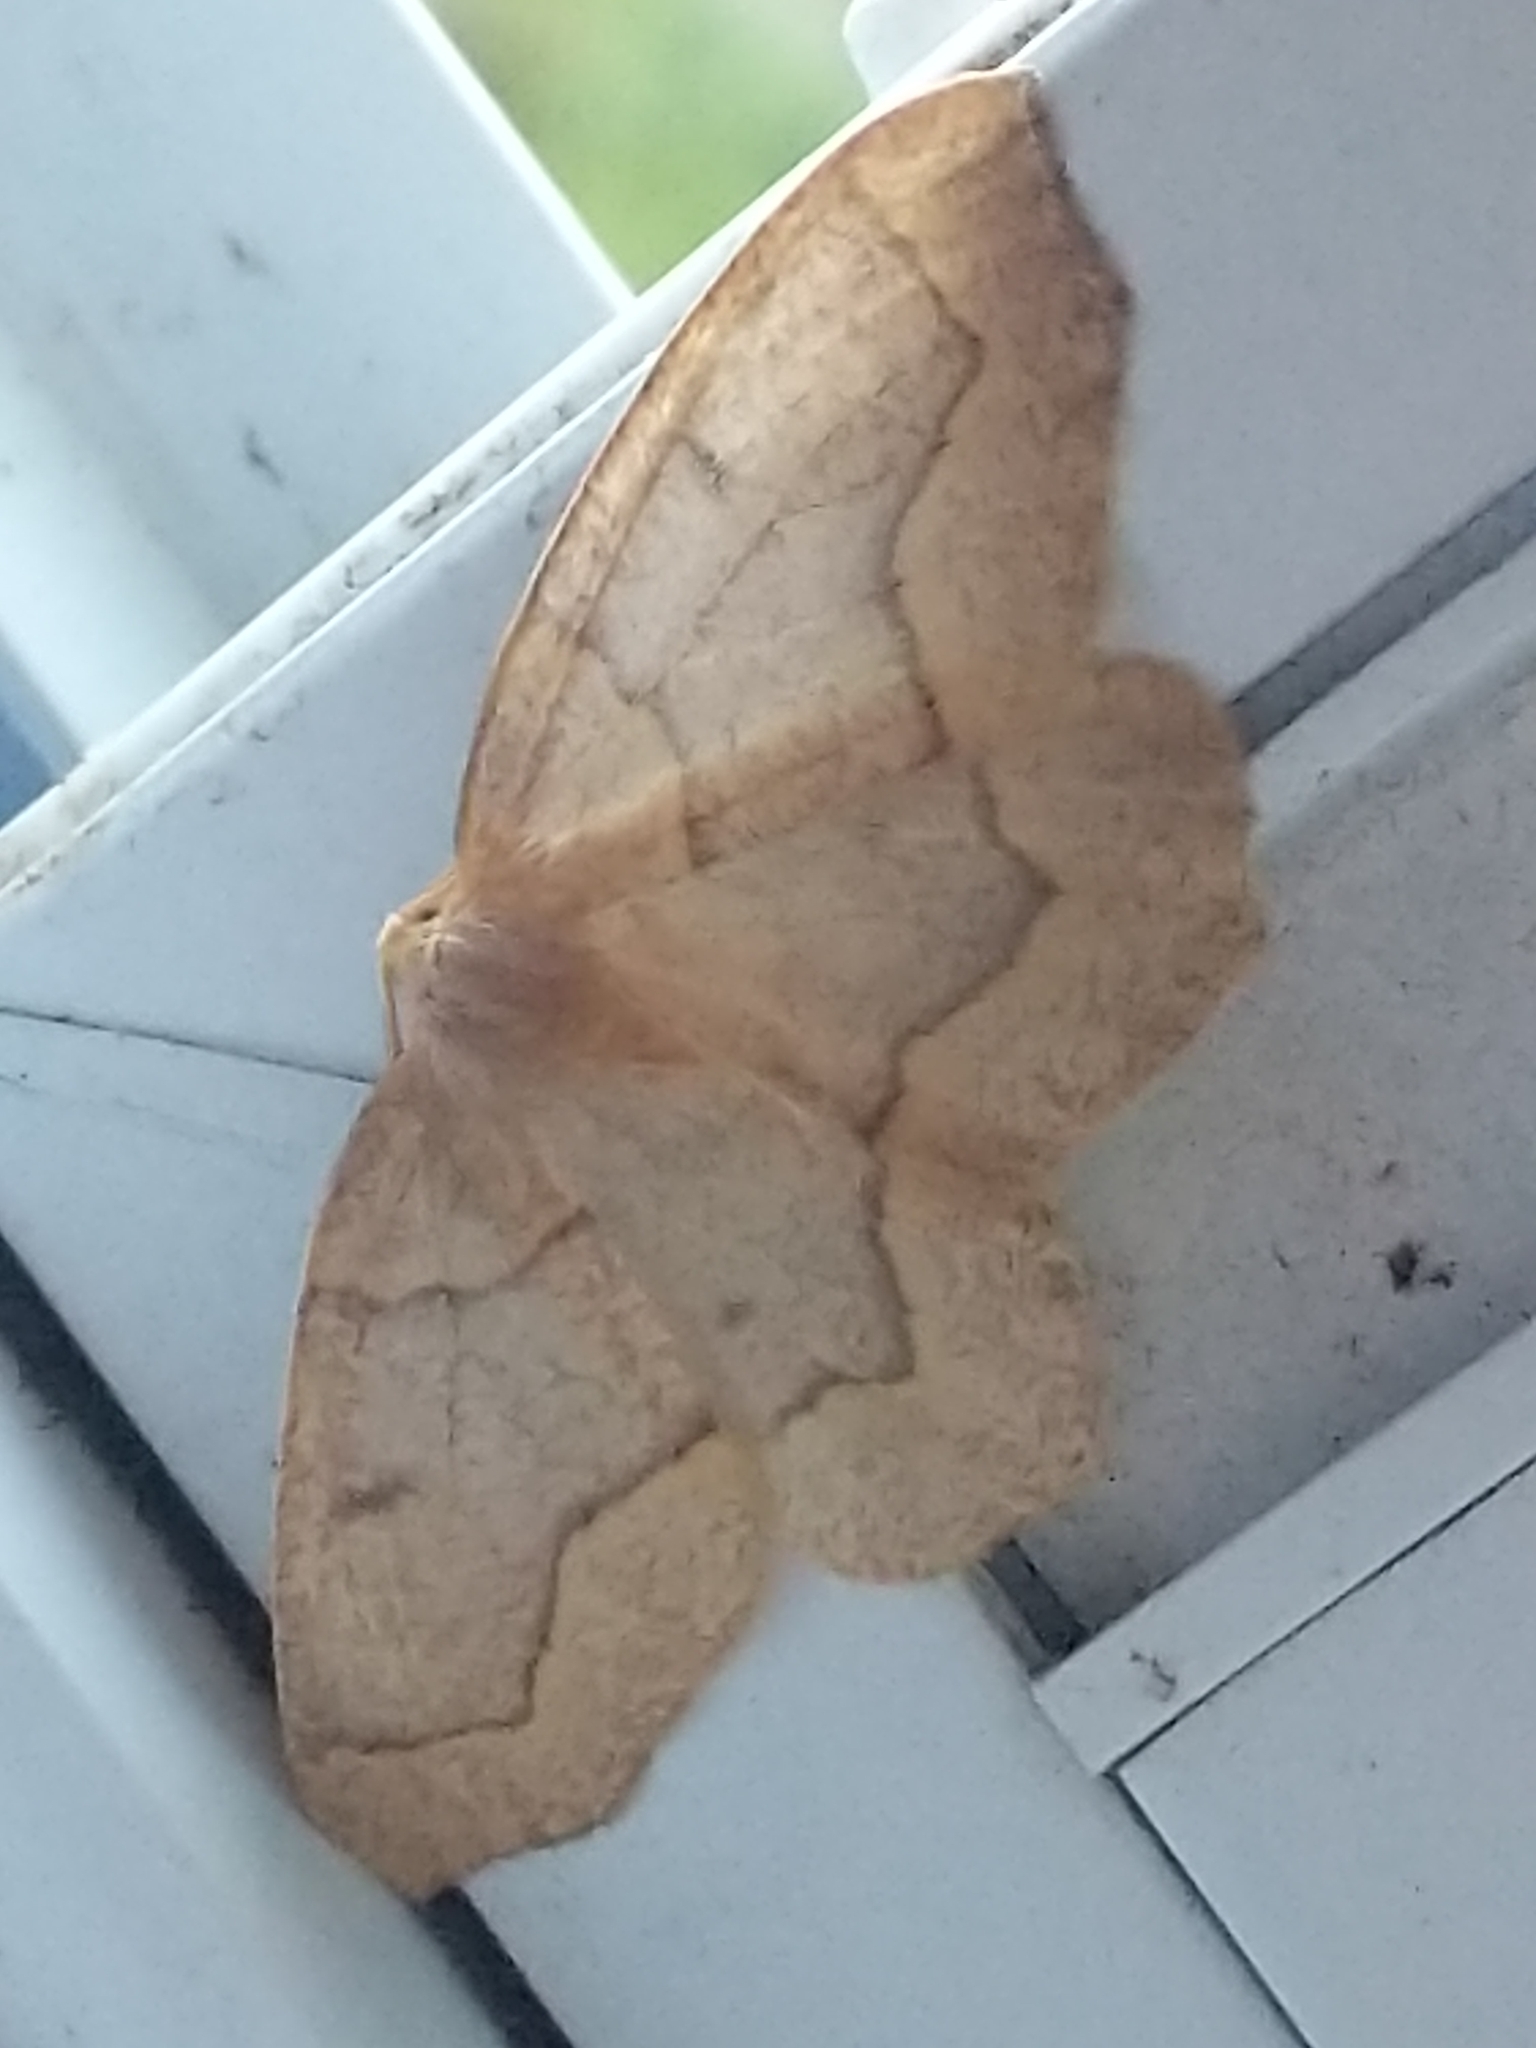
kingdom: Animalia
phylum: Arthropoda
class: Insecta
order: Lepidoptera
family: Geometridae
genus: Lambdina
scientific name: Lambdina fiscellaria
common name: Hemlock looper
